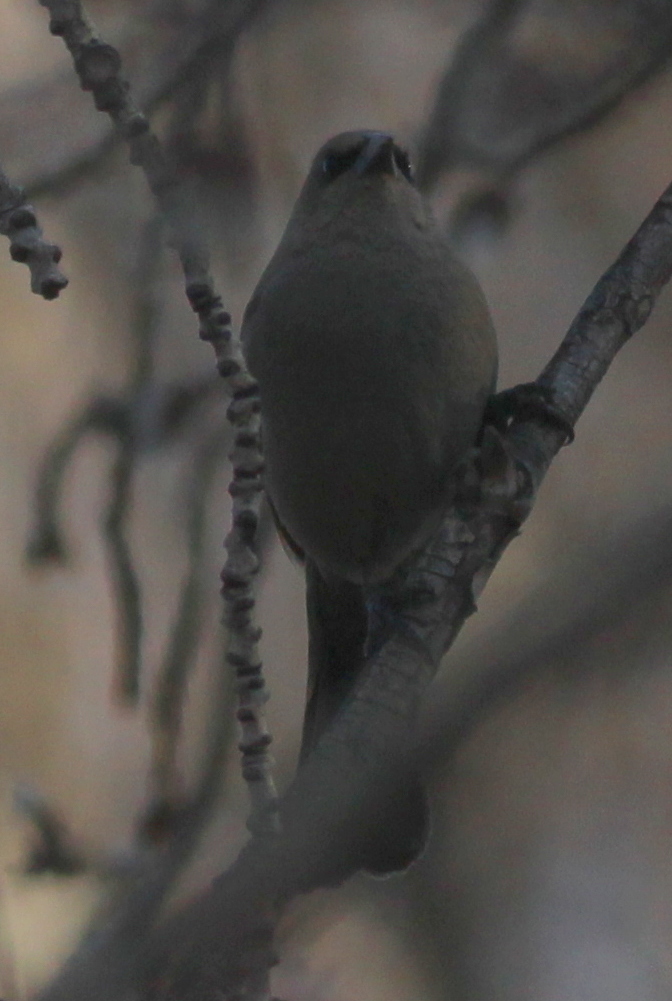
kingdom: Animalia
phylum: Chordata
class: Aves
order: Passeriformes
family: Icteridae
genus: Agelaioides
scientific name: Agelaioides badius
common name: Baywing
